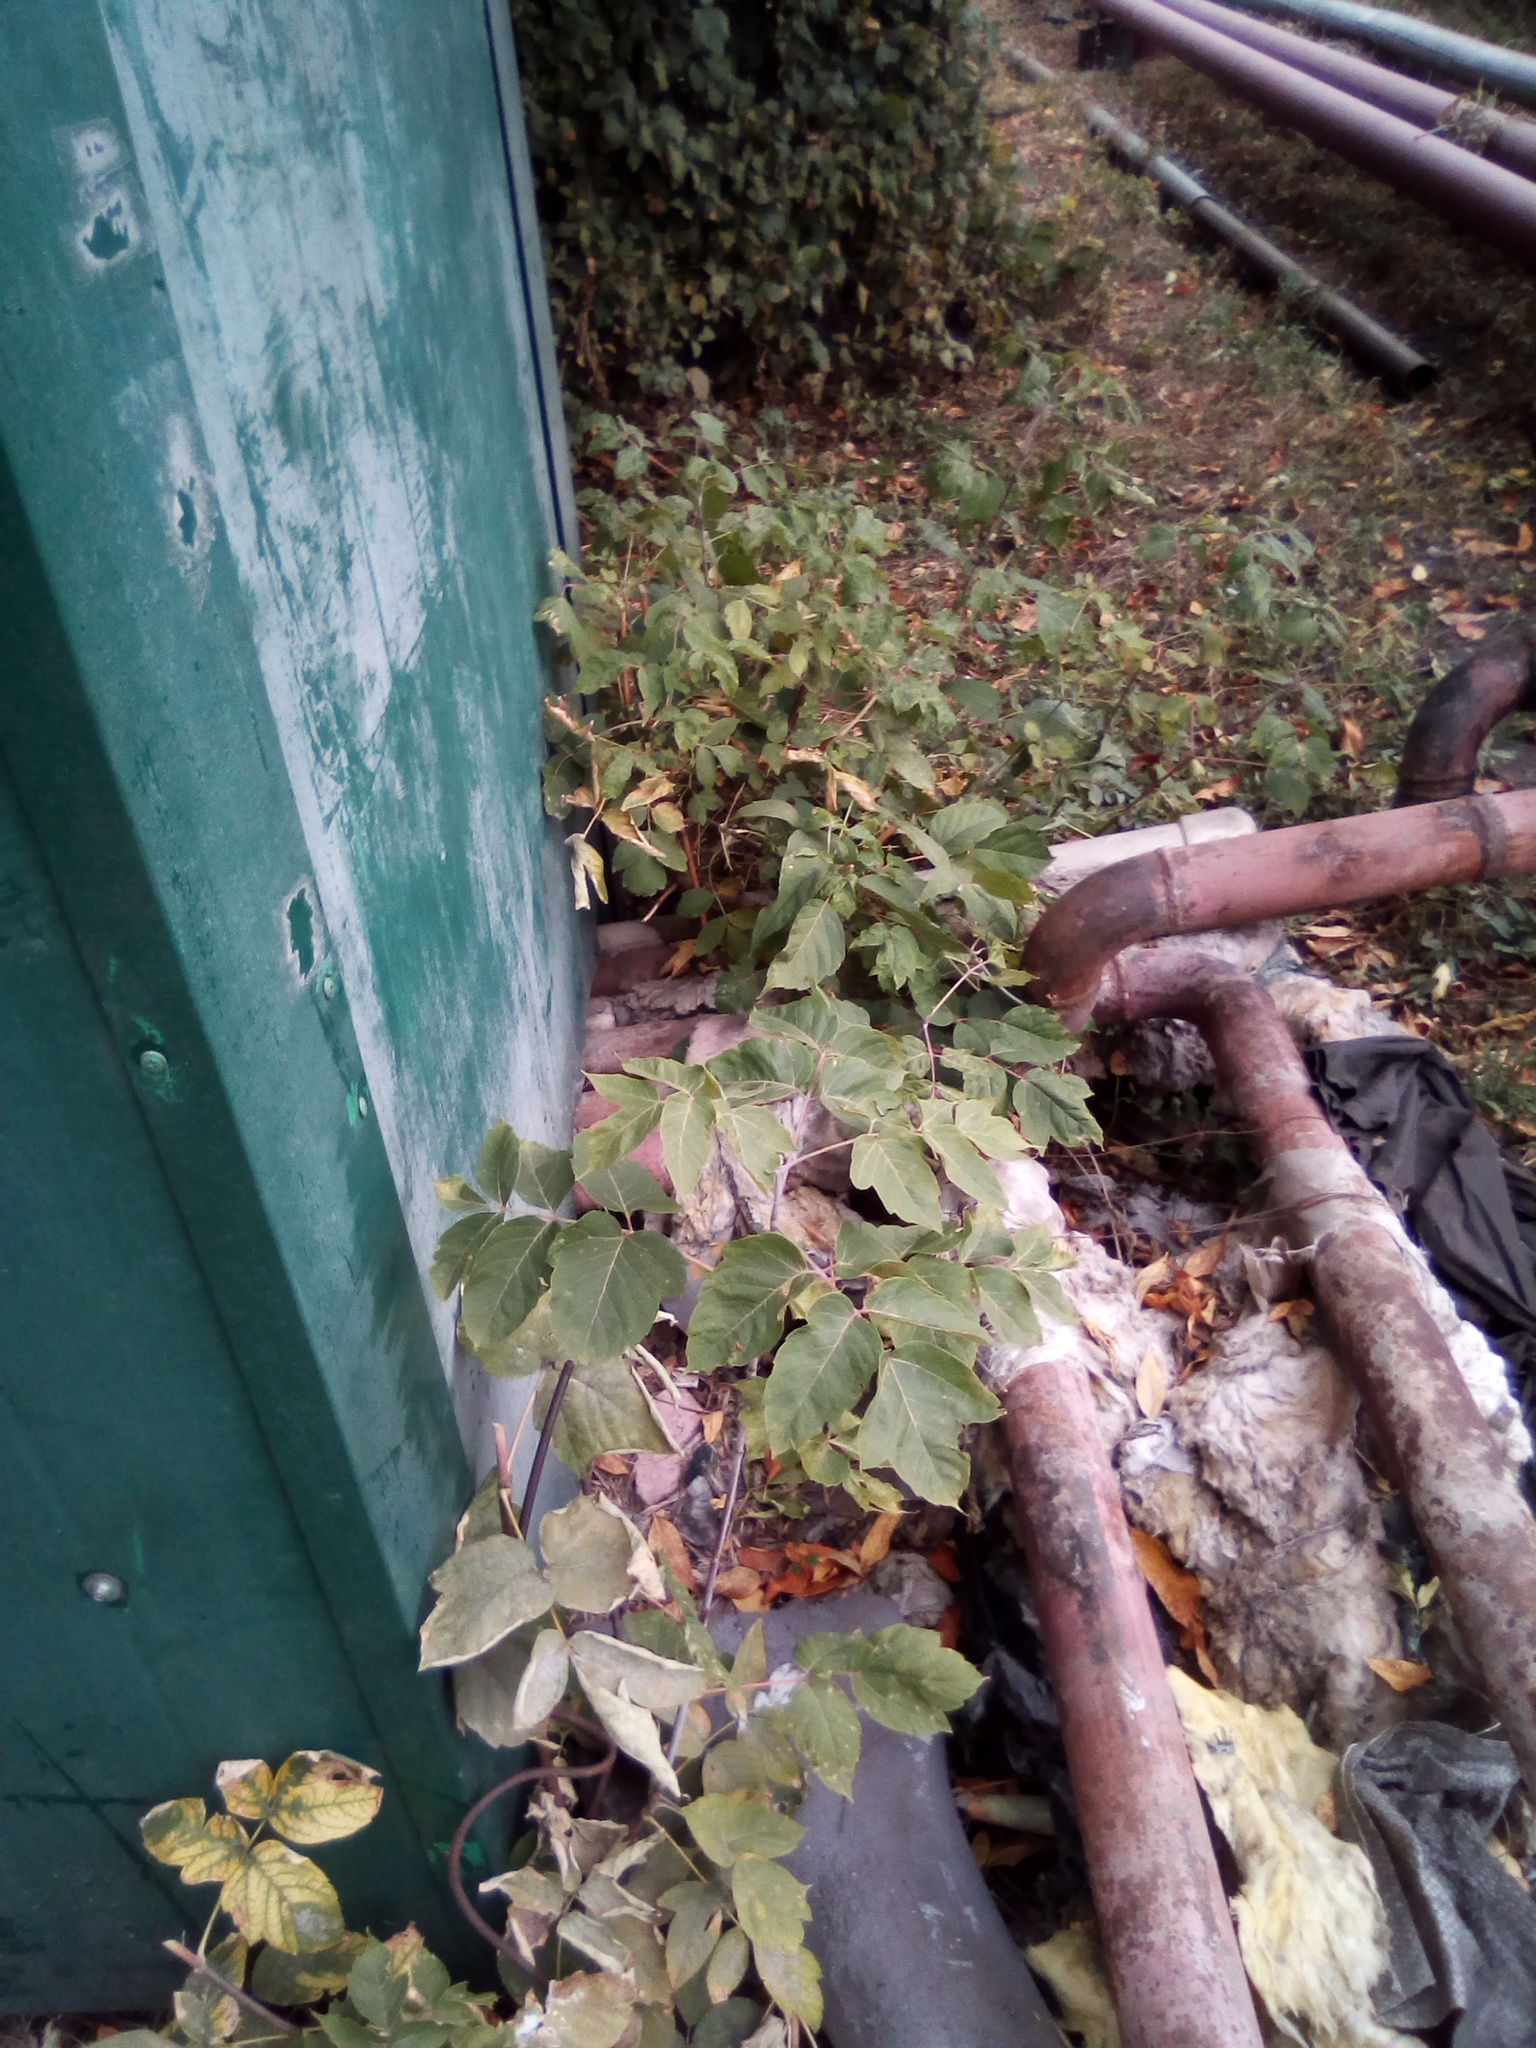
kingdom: Plantae
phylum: Tracheophyta
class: Magnoliopsida
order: Sapindales
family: Sapindaceae
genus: Acer
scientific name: Acer negundo
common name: Ashleaf maple
